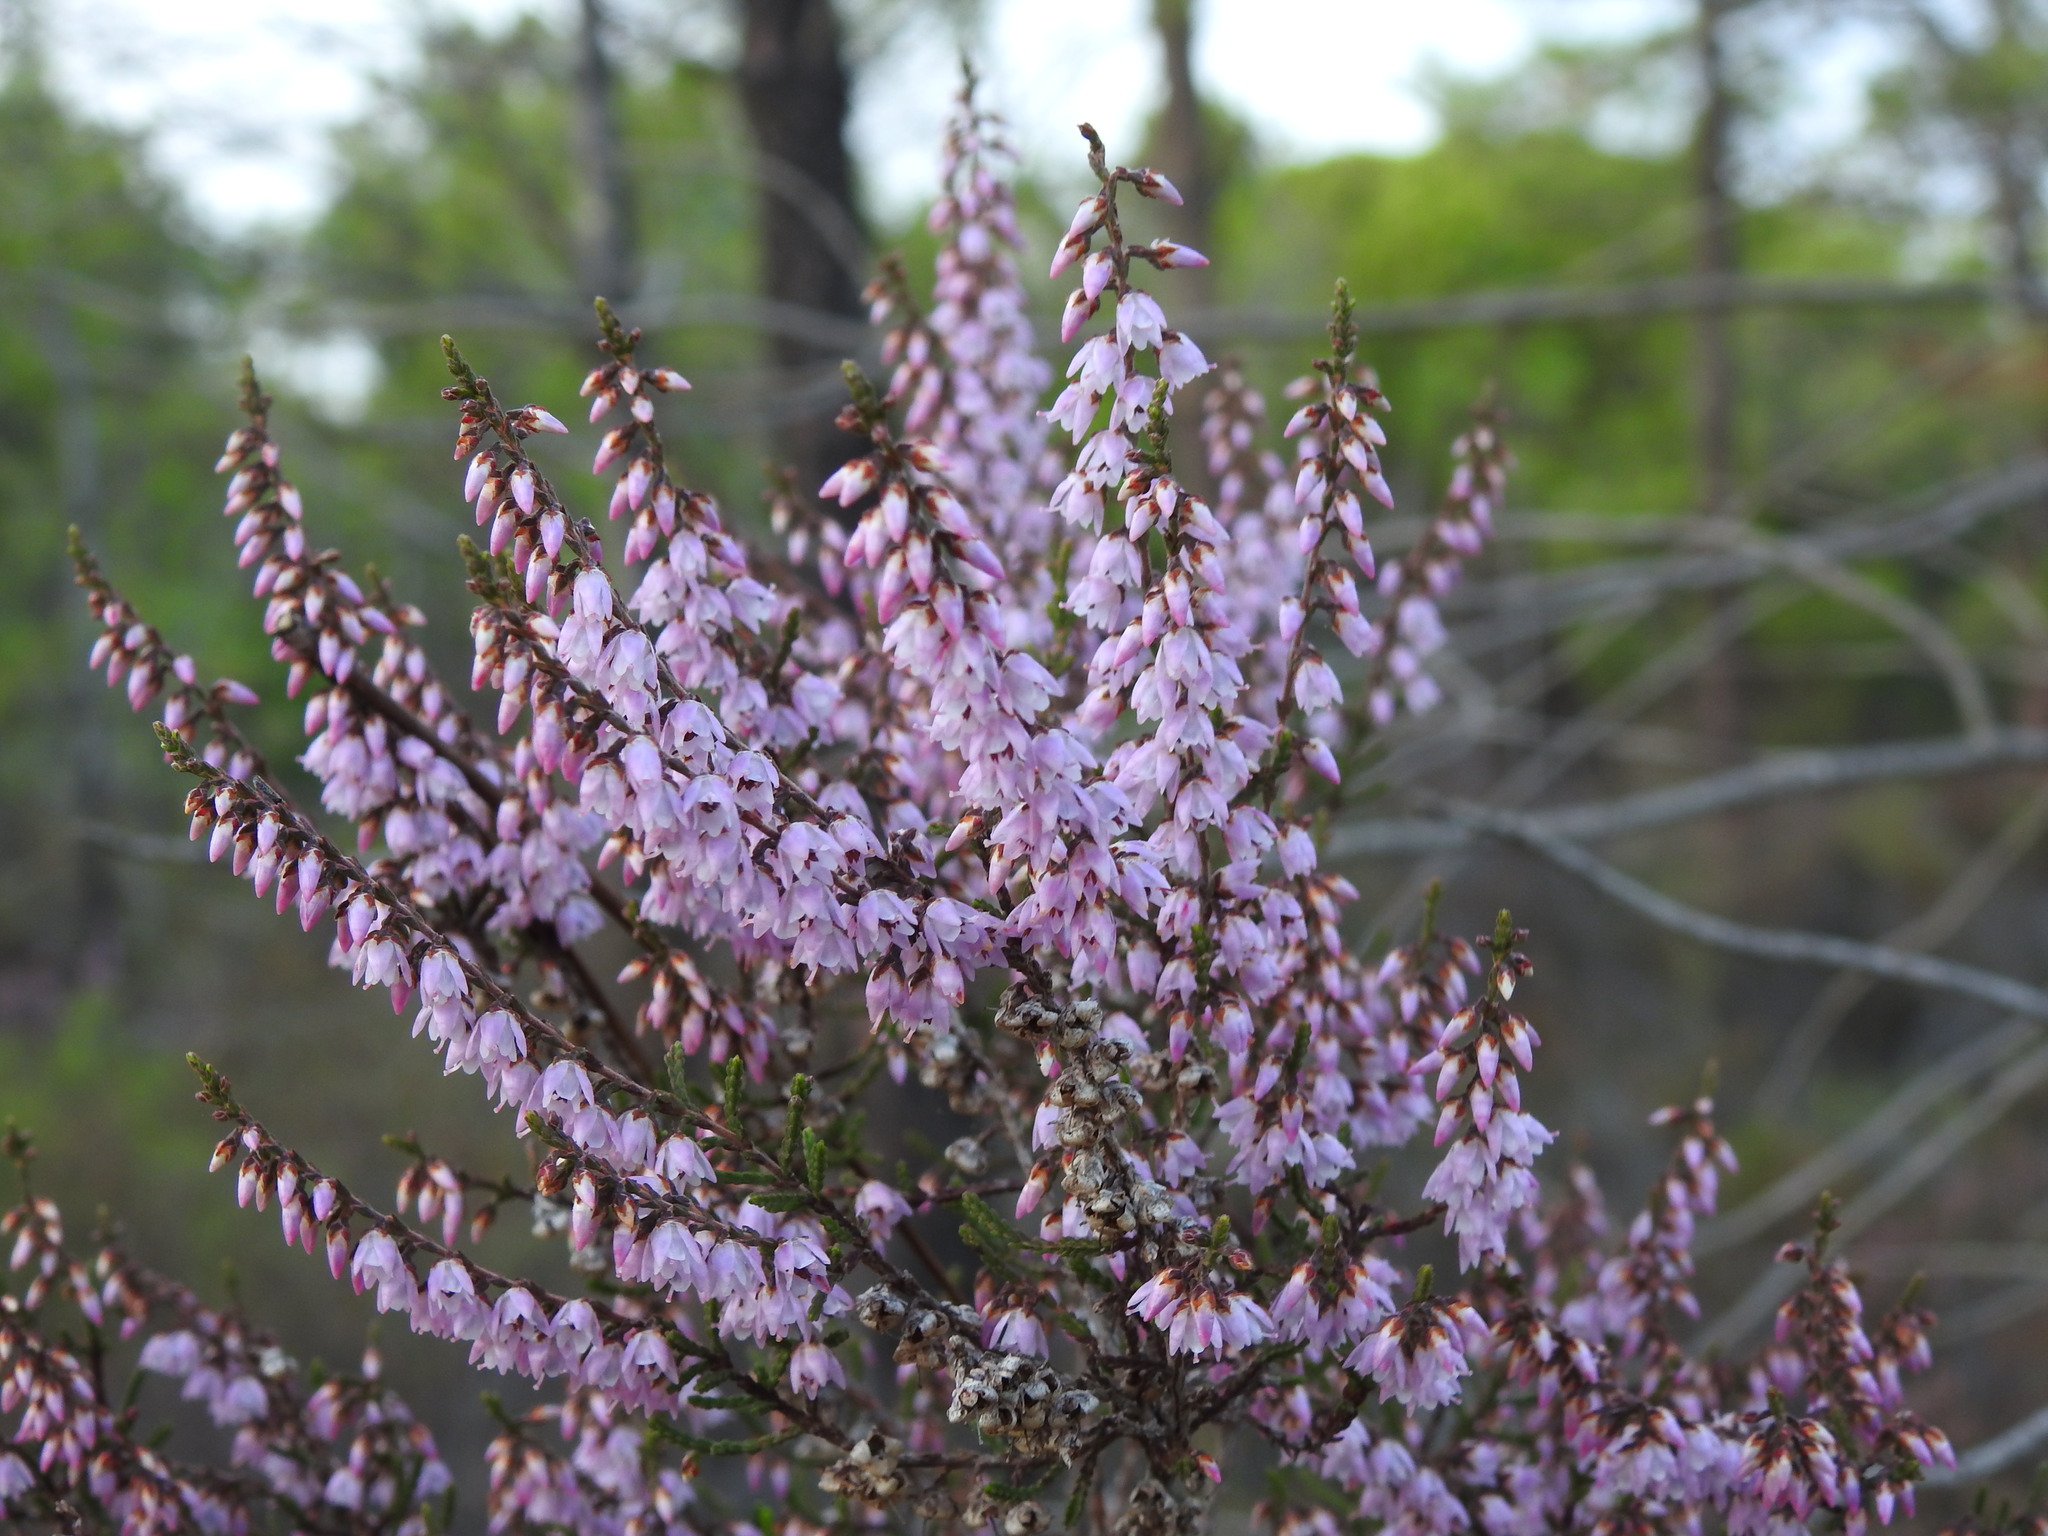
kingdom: Plantae
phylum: Tracheophyta
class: Magnoliopsida
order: Ericales
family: Ericaceae
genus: Calluna
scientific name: Calluna vulgaris
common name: Heather
